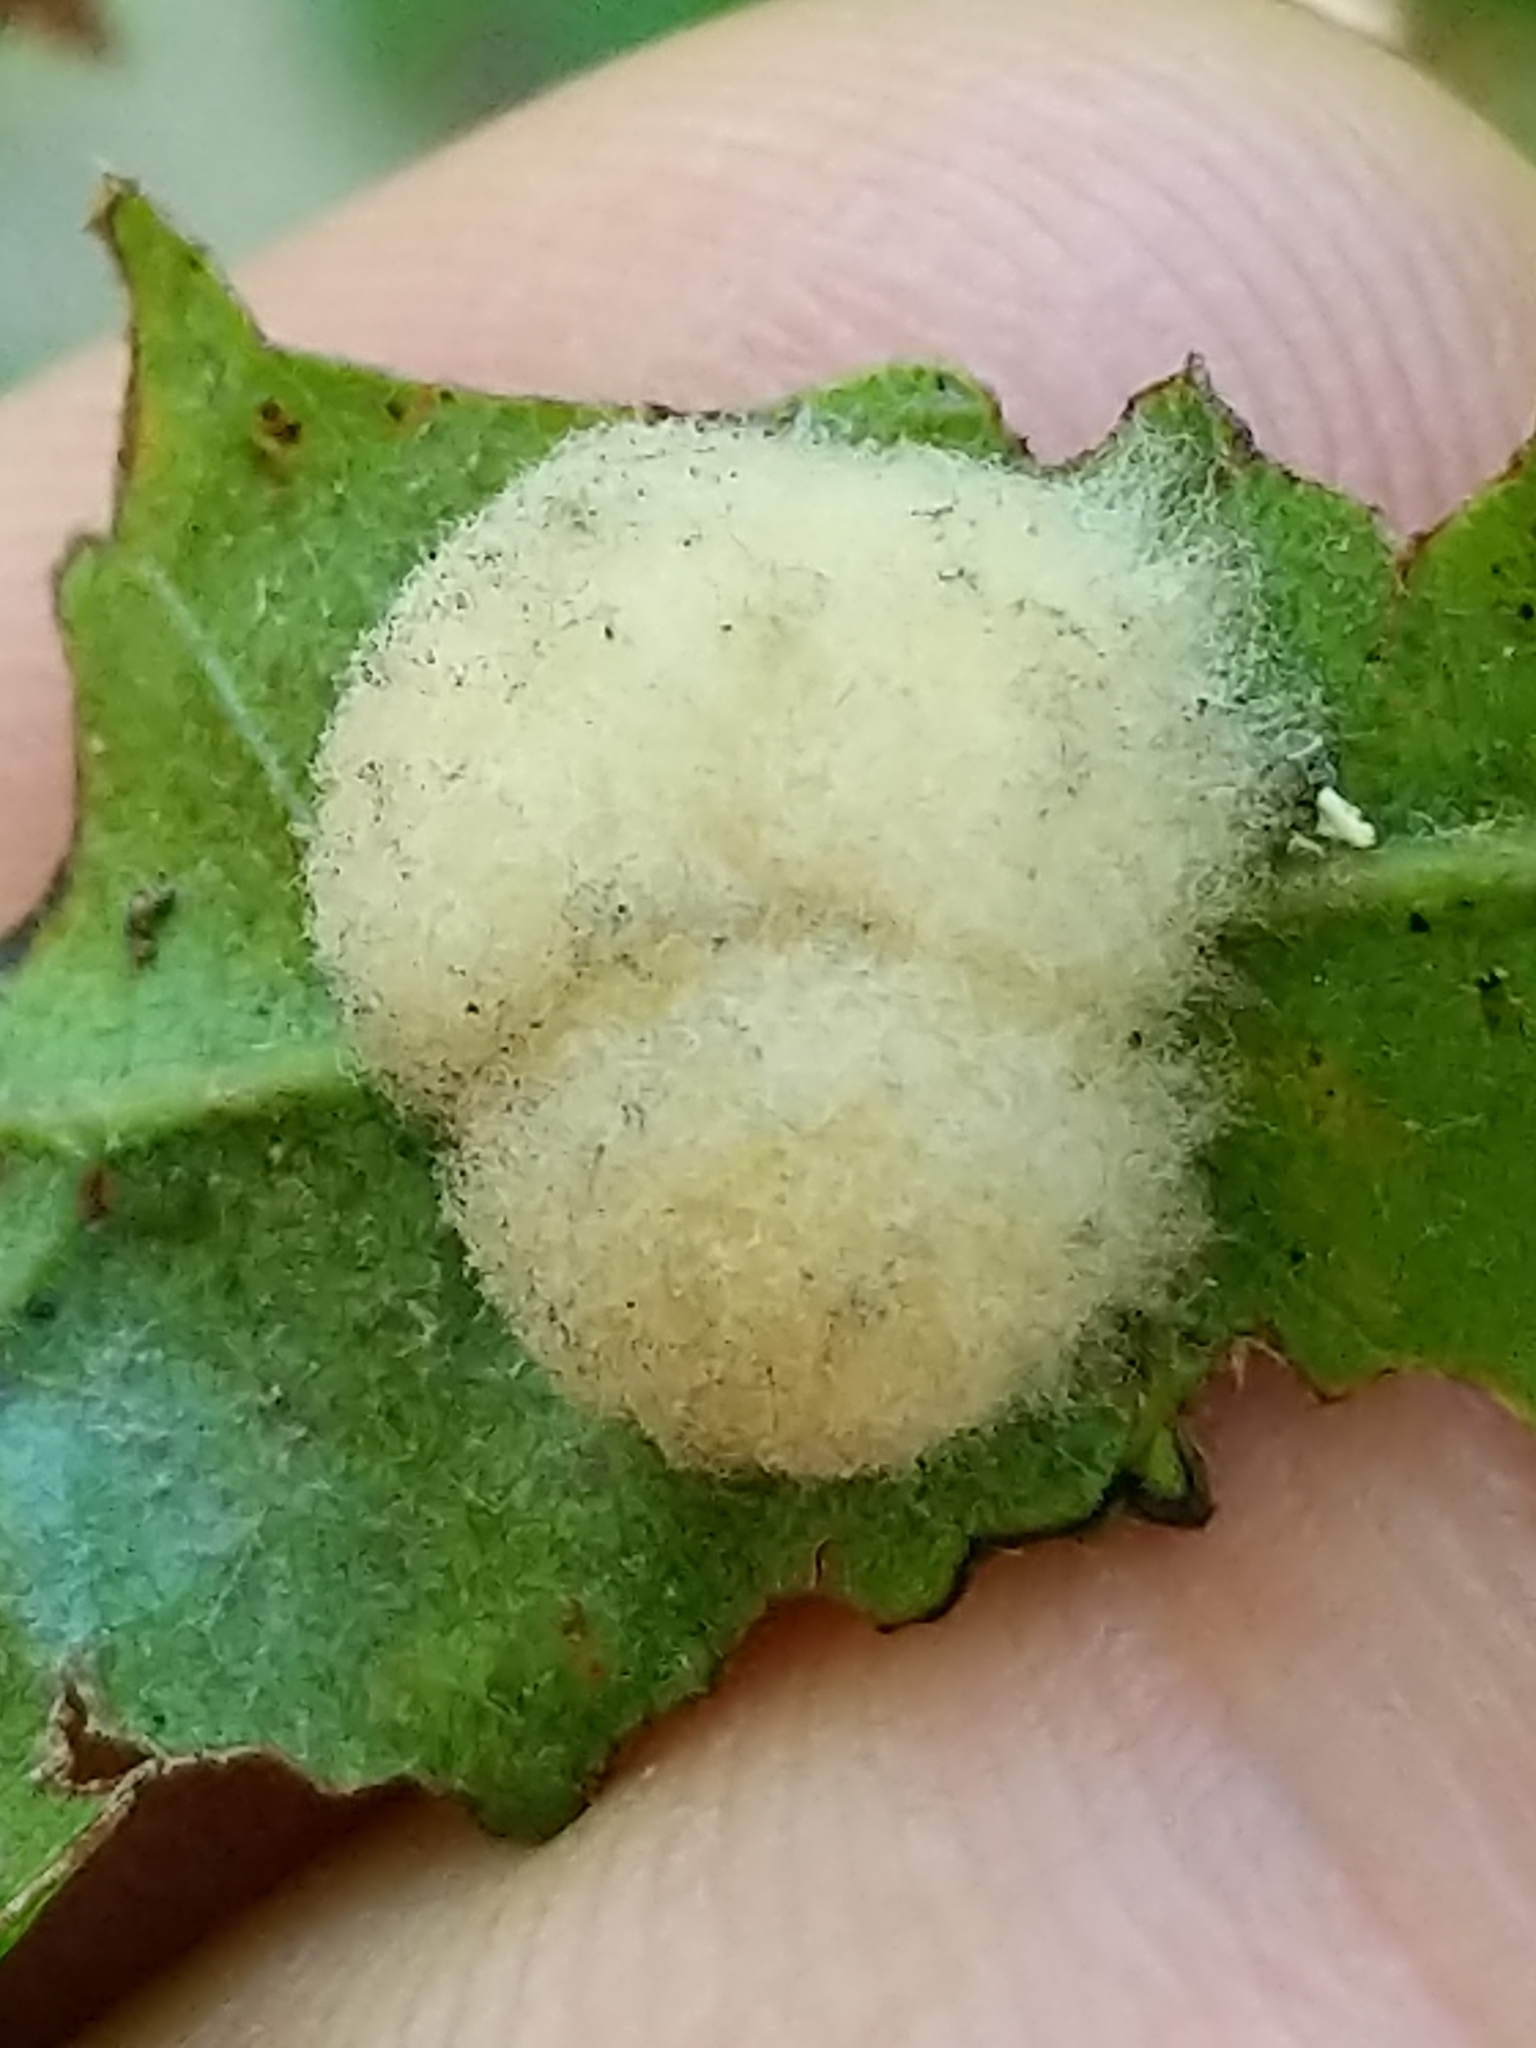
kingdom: Animalia
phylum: Arthropoda
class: Insecta
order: Hymenoptera
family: Cynipidae
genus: Callirhytis
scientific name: Callirhytis
